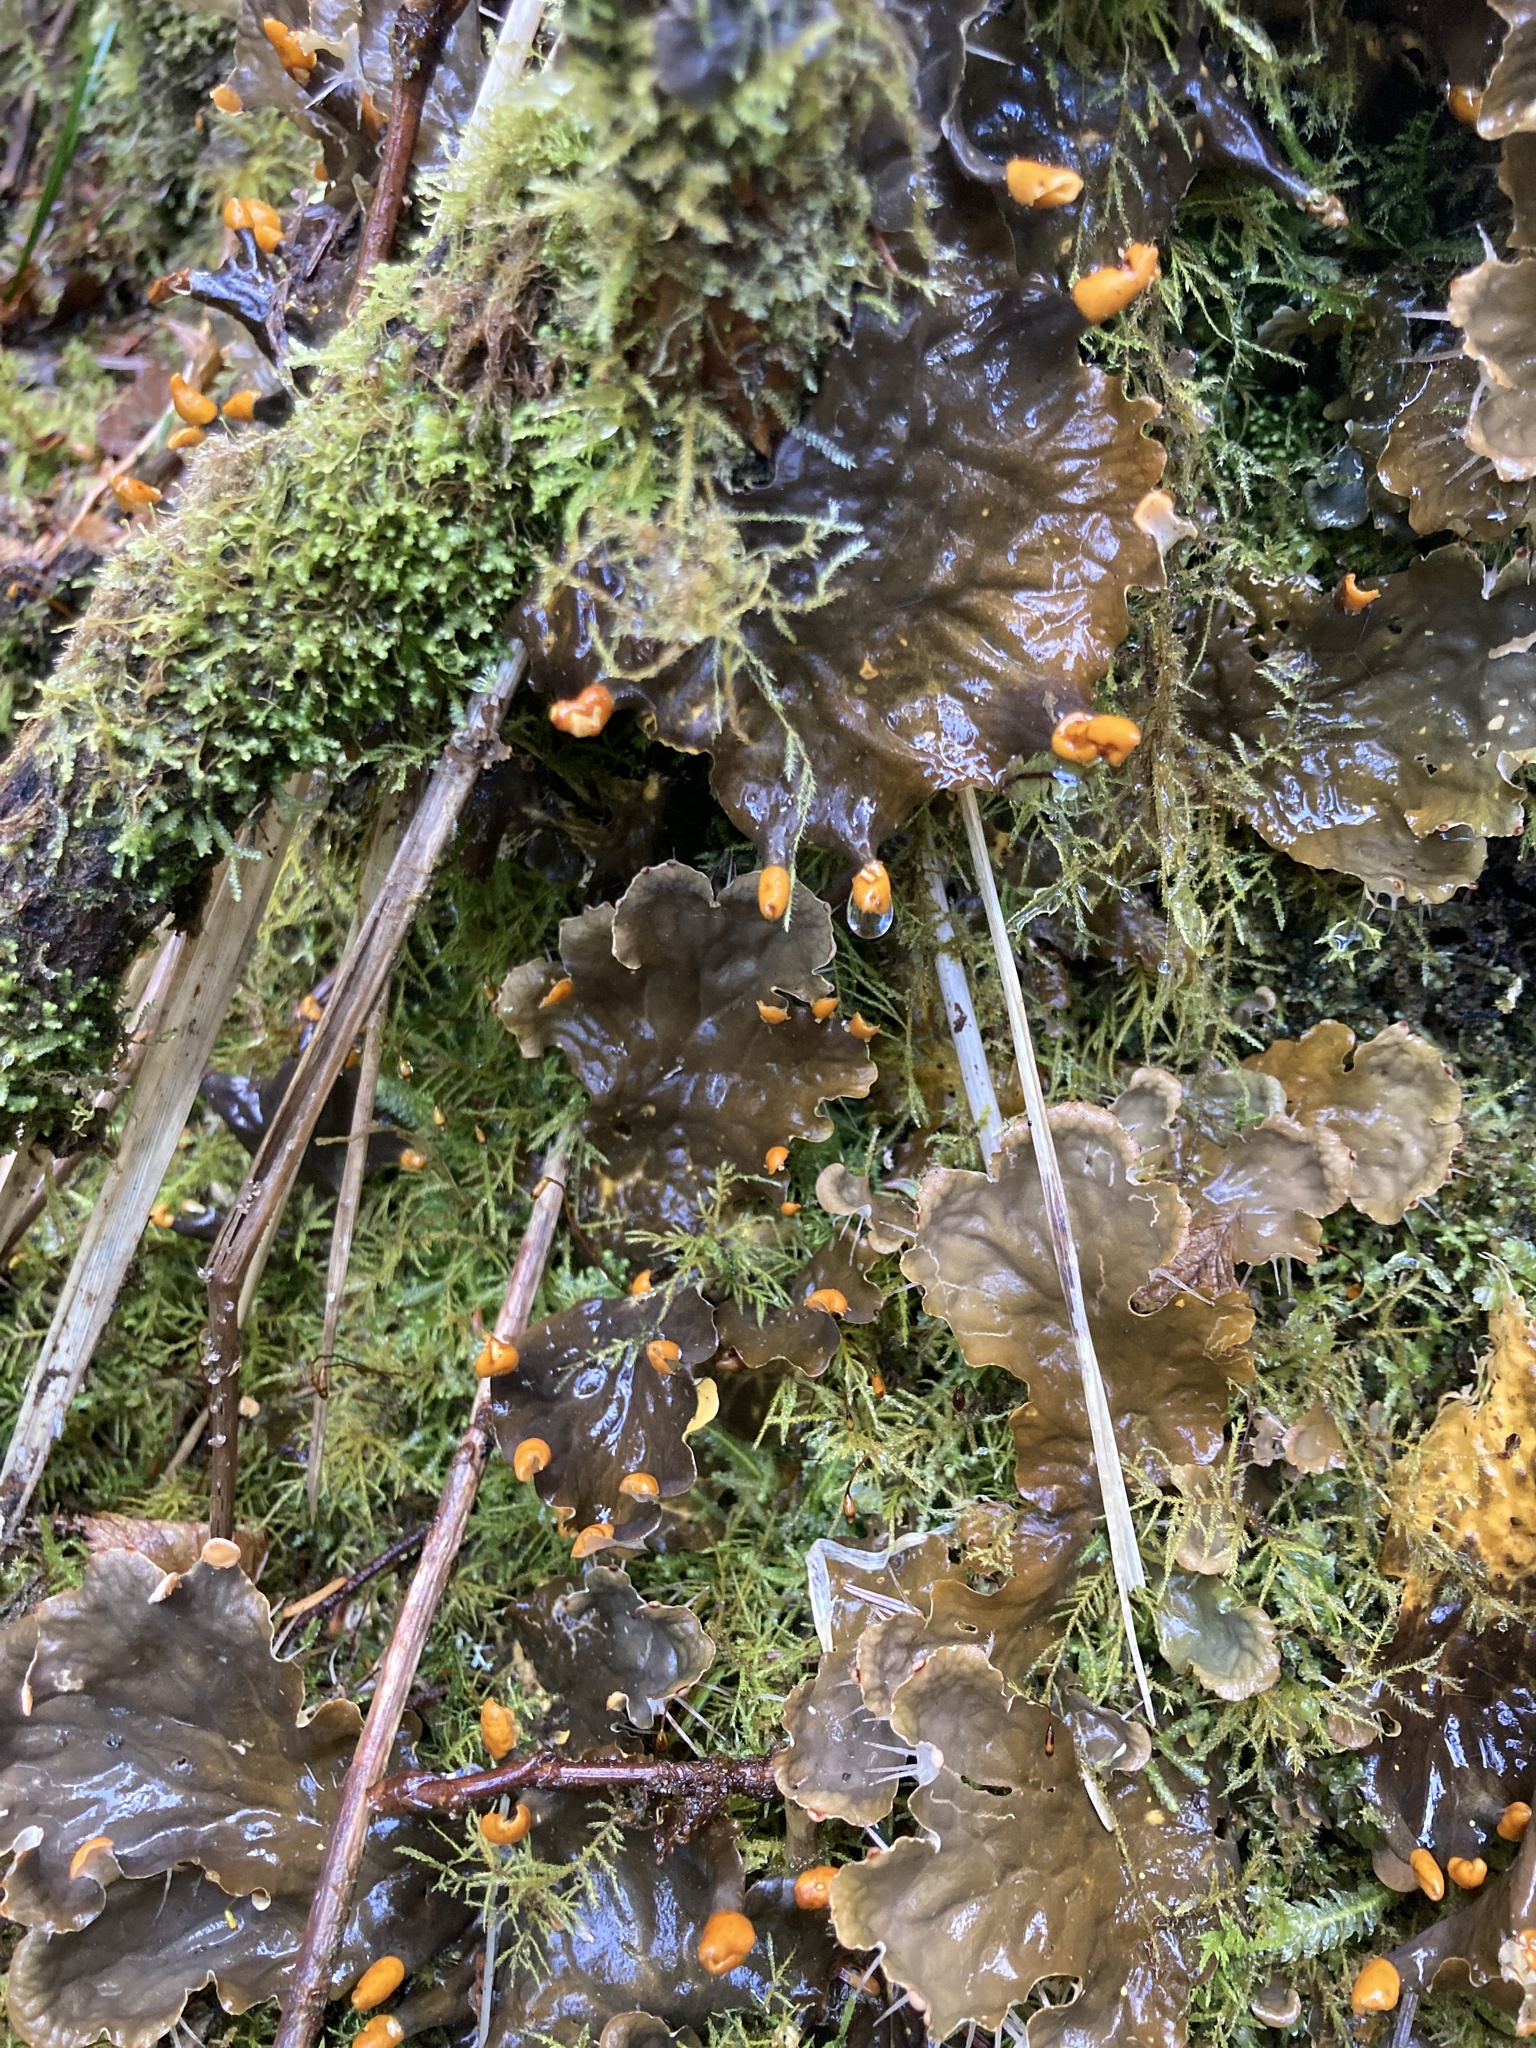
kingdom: Fungi
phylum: Ascomycota
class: Lecanoromycetes
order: Peltigerales
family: Peltigeraceae
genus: Peltigera
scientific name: Peltigera membranacea
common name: Membranous pelt lichen
